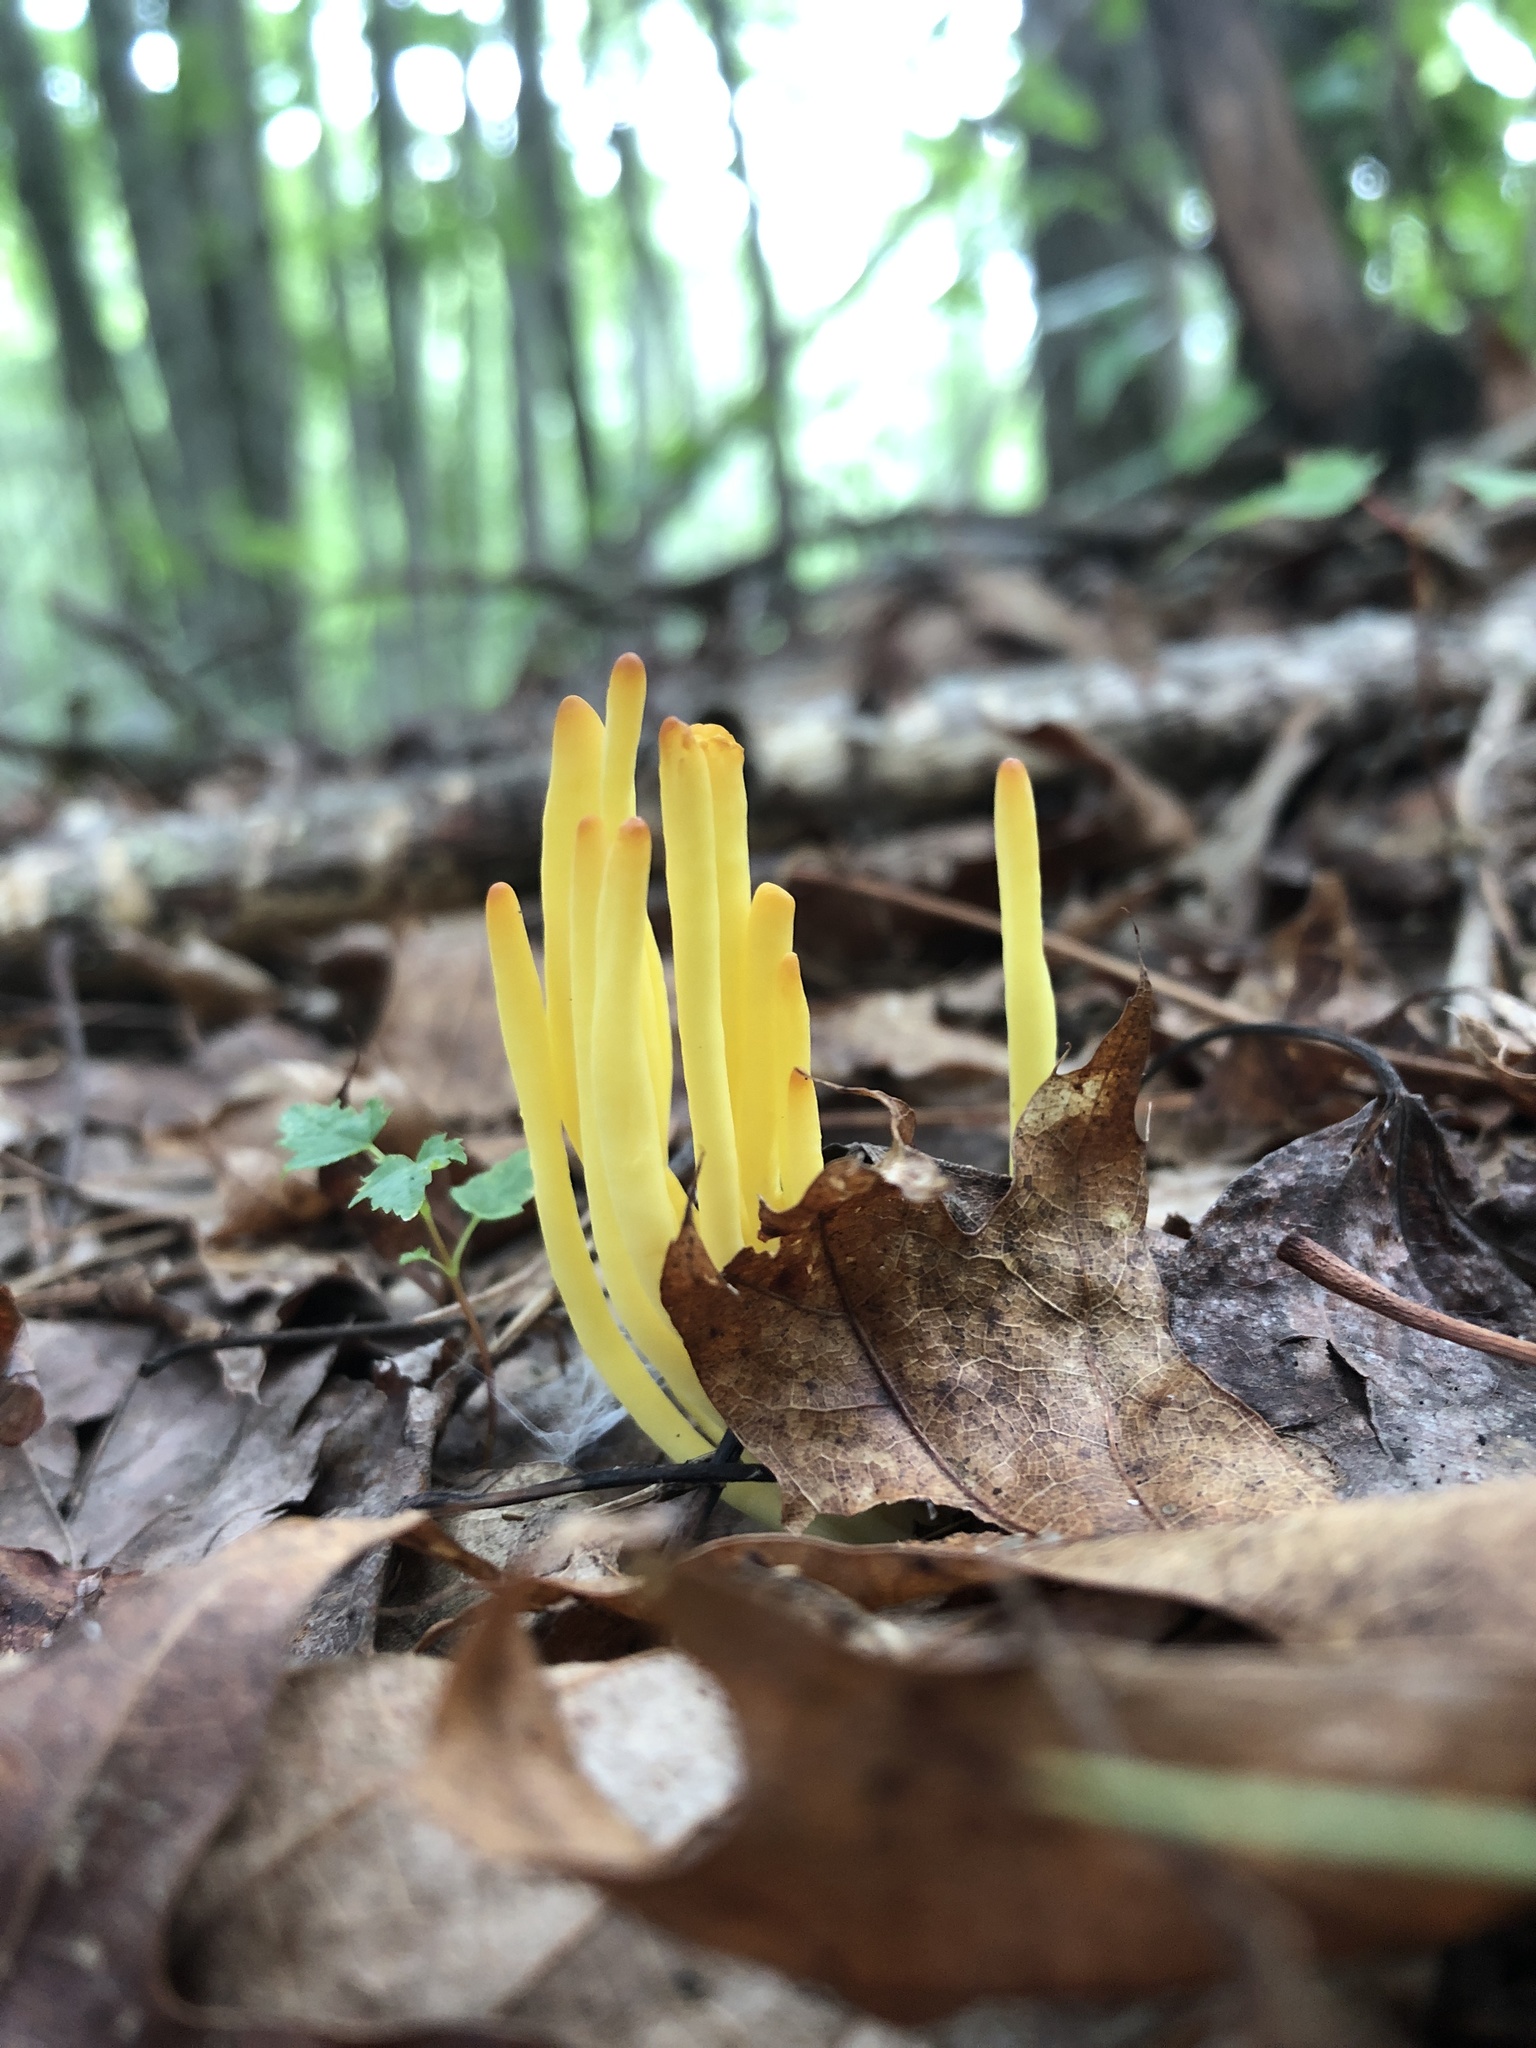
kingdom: Fungi
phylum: Basidiomycota
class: Agaricomycetes
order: Agaricales
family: Clavariaceae
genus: Clavulinopsis
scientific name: Clavulinopsis fusiformis
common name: Golden spindles
